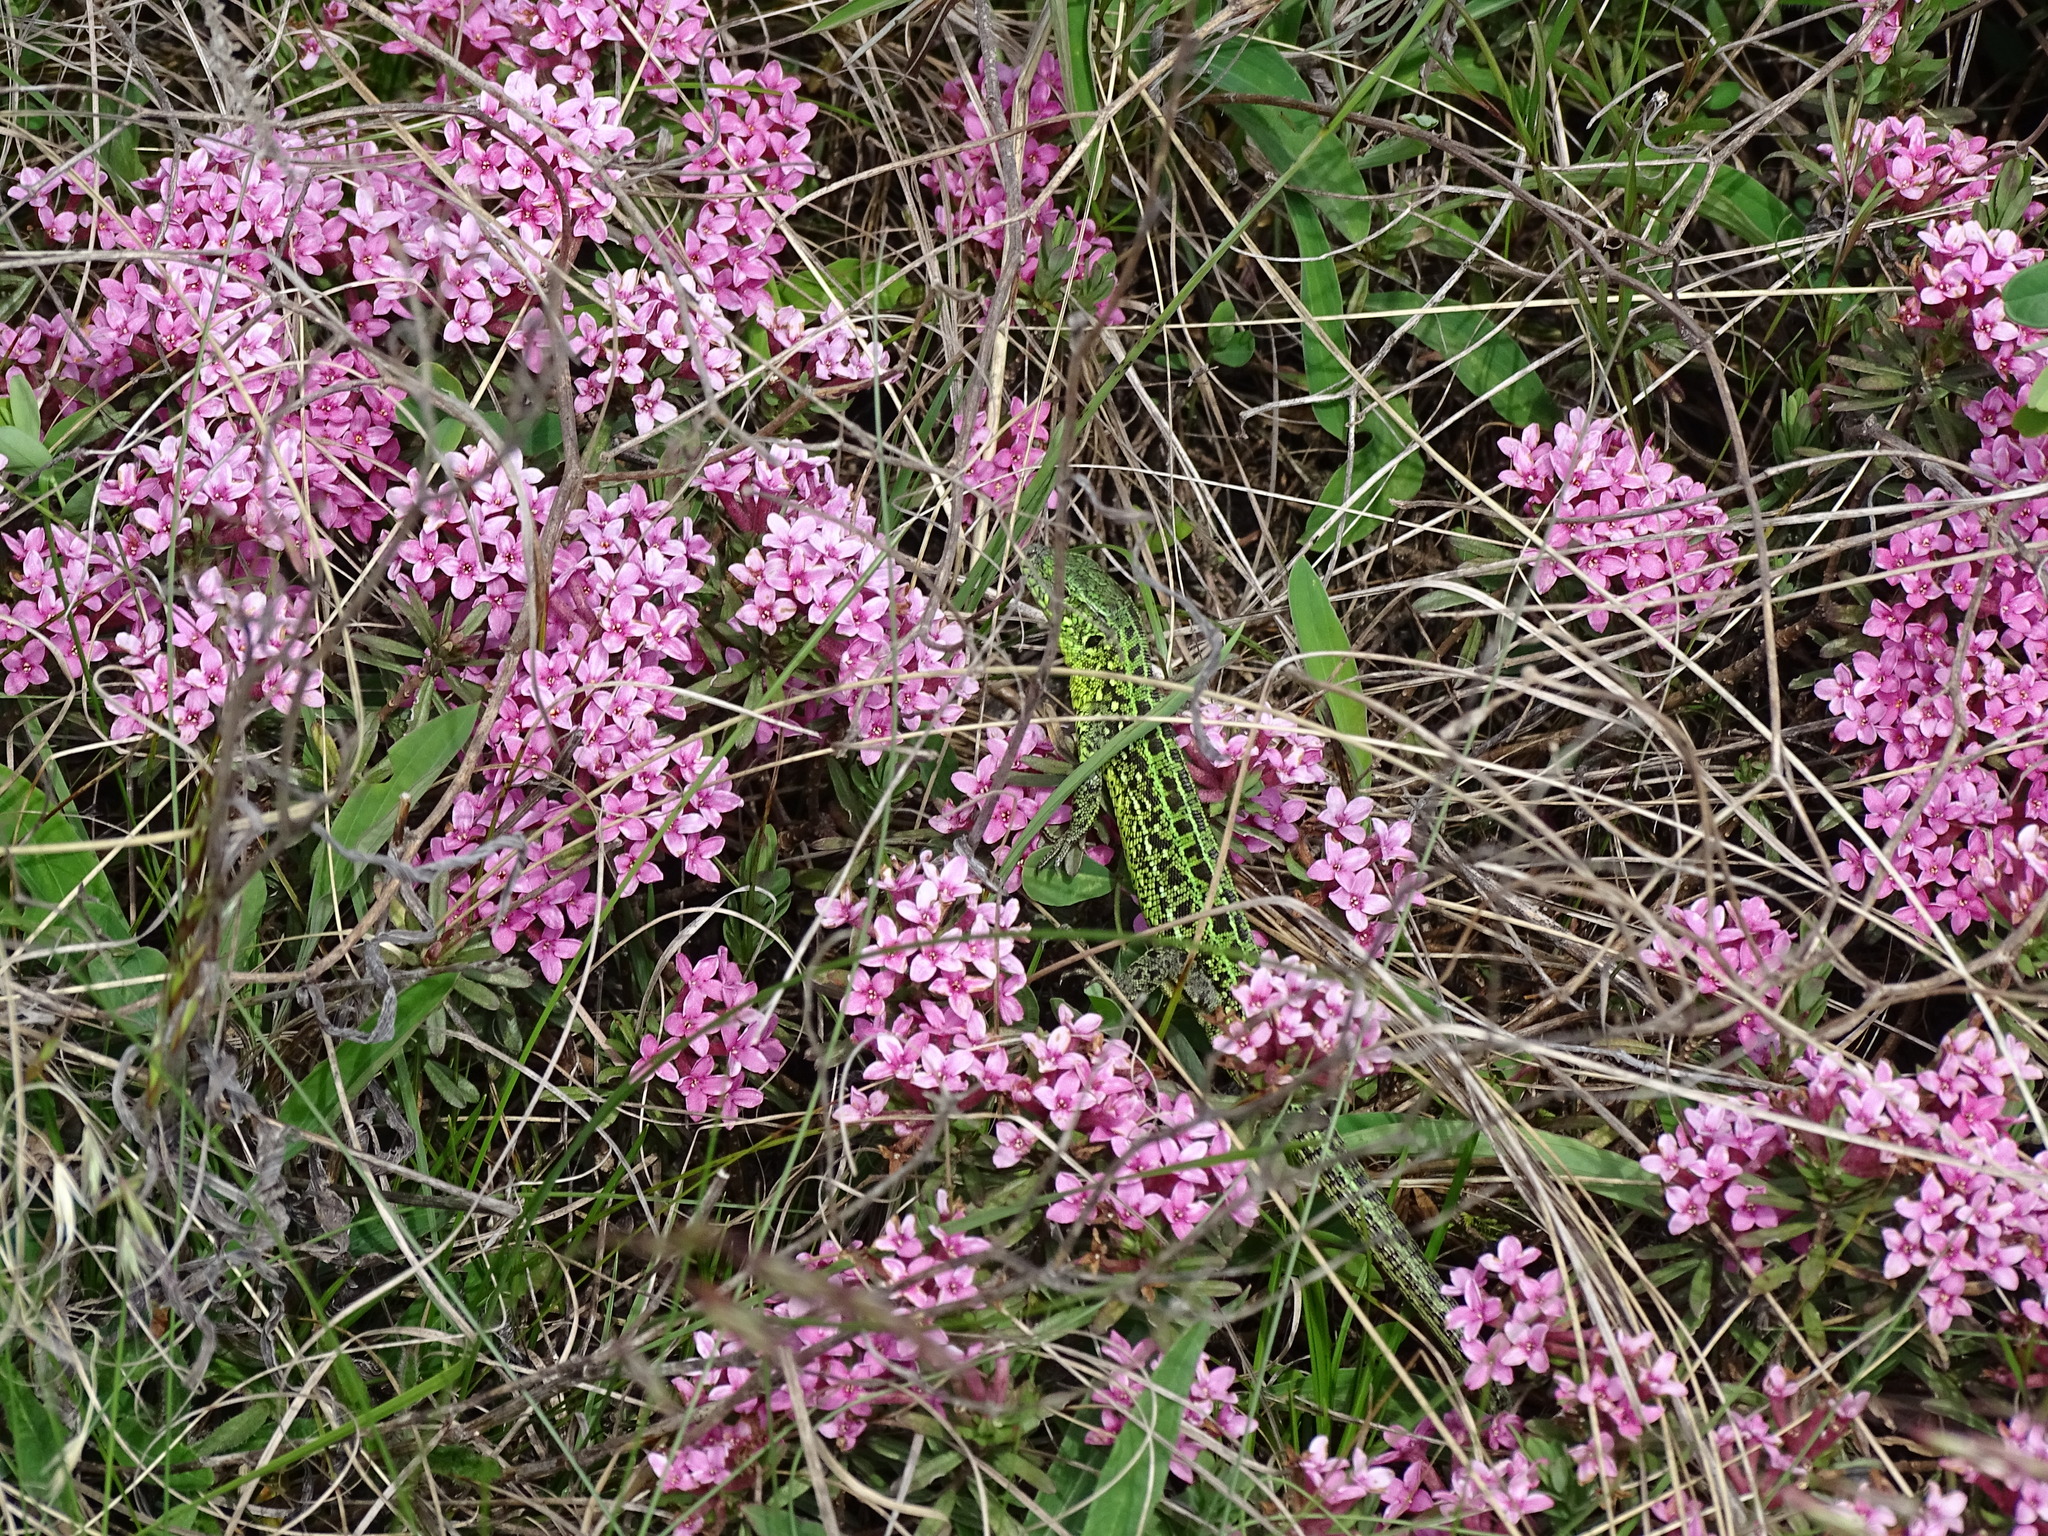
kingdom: Animalia
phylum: Chordata
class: Squamata
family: Lacertidae
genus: Lacerta
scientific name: Lacerta agilis
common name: Sand lizard
